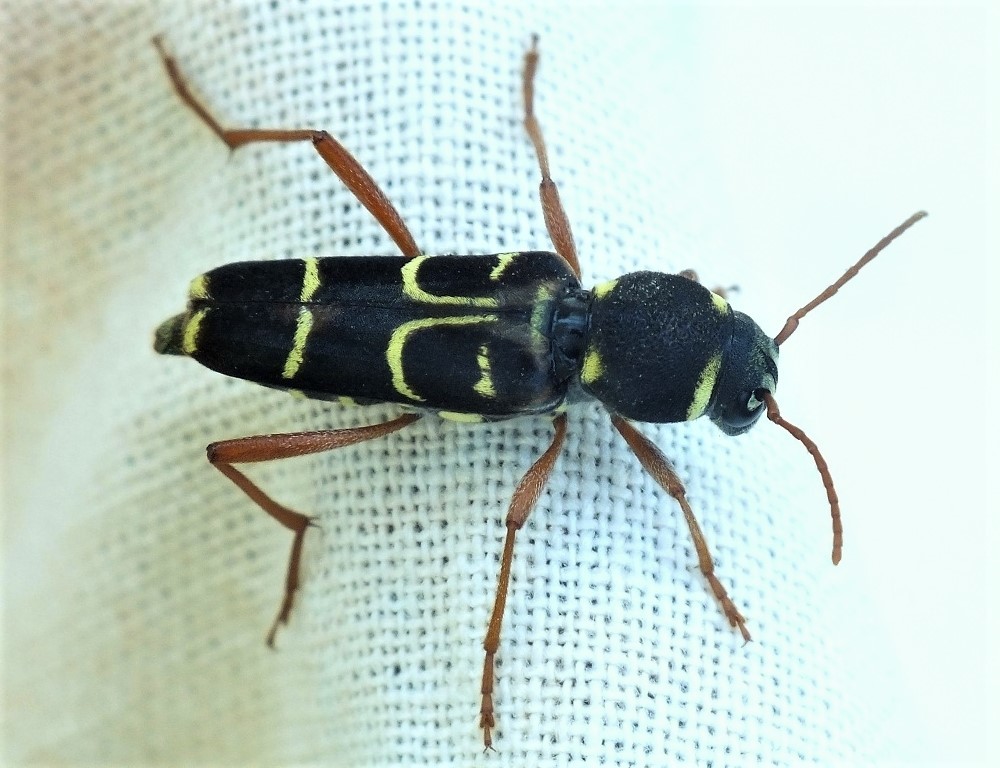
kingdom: Animalia
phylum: Arthropoda
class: Insecta
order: Coleoptera
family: Cerambycidae
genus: Xylotrechus
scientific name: Xylotrechus arvicola
